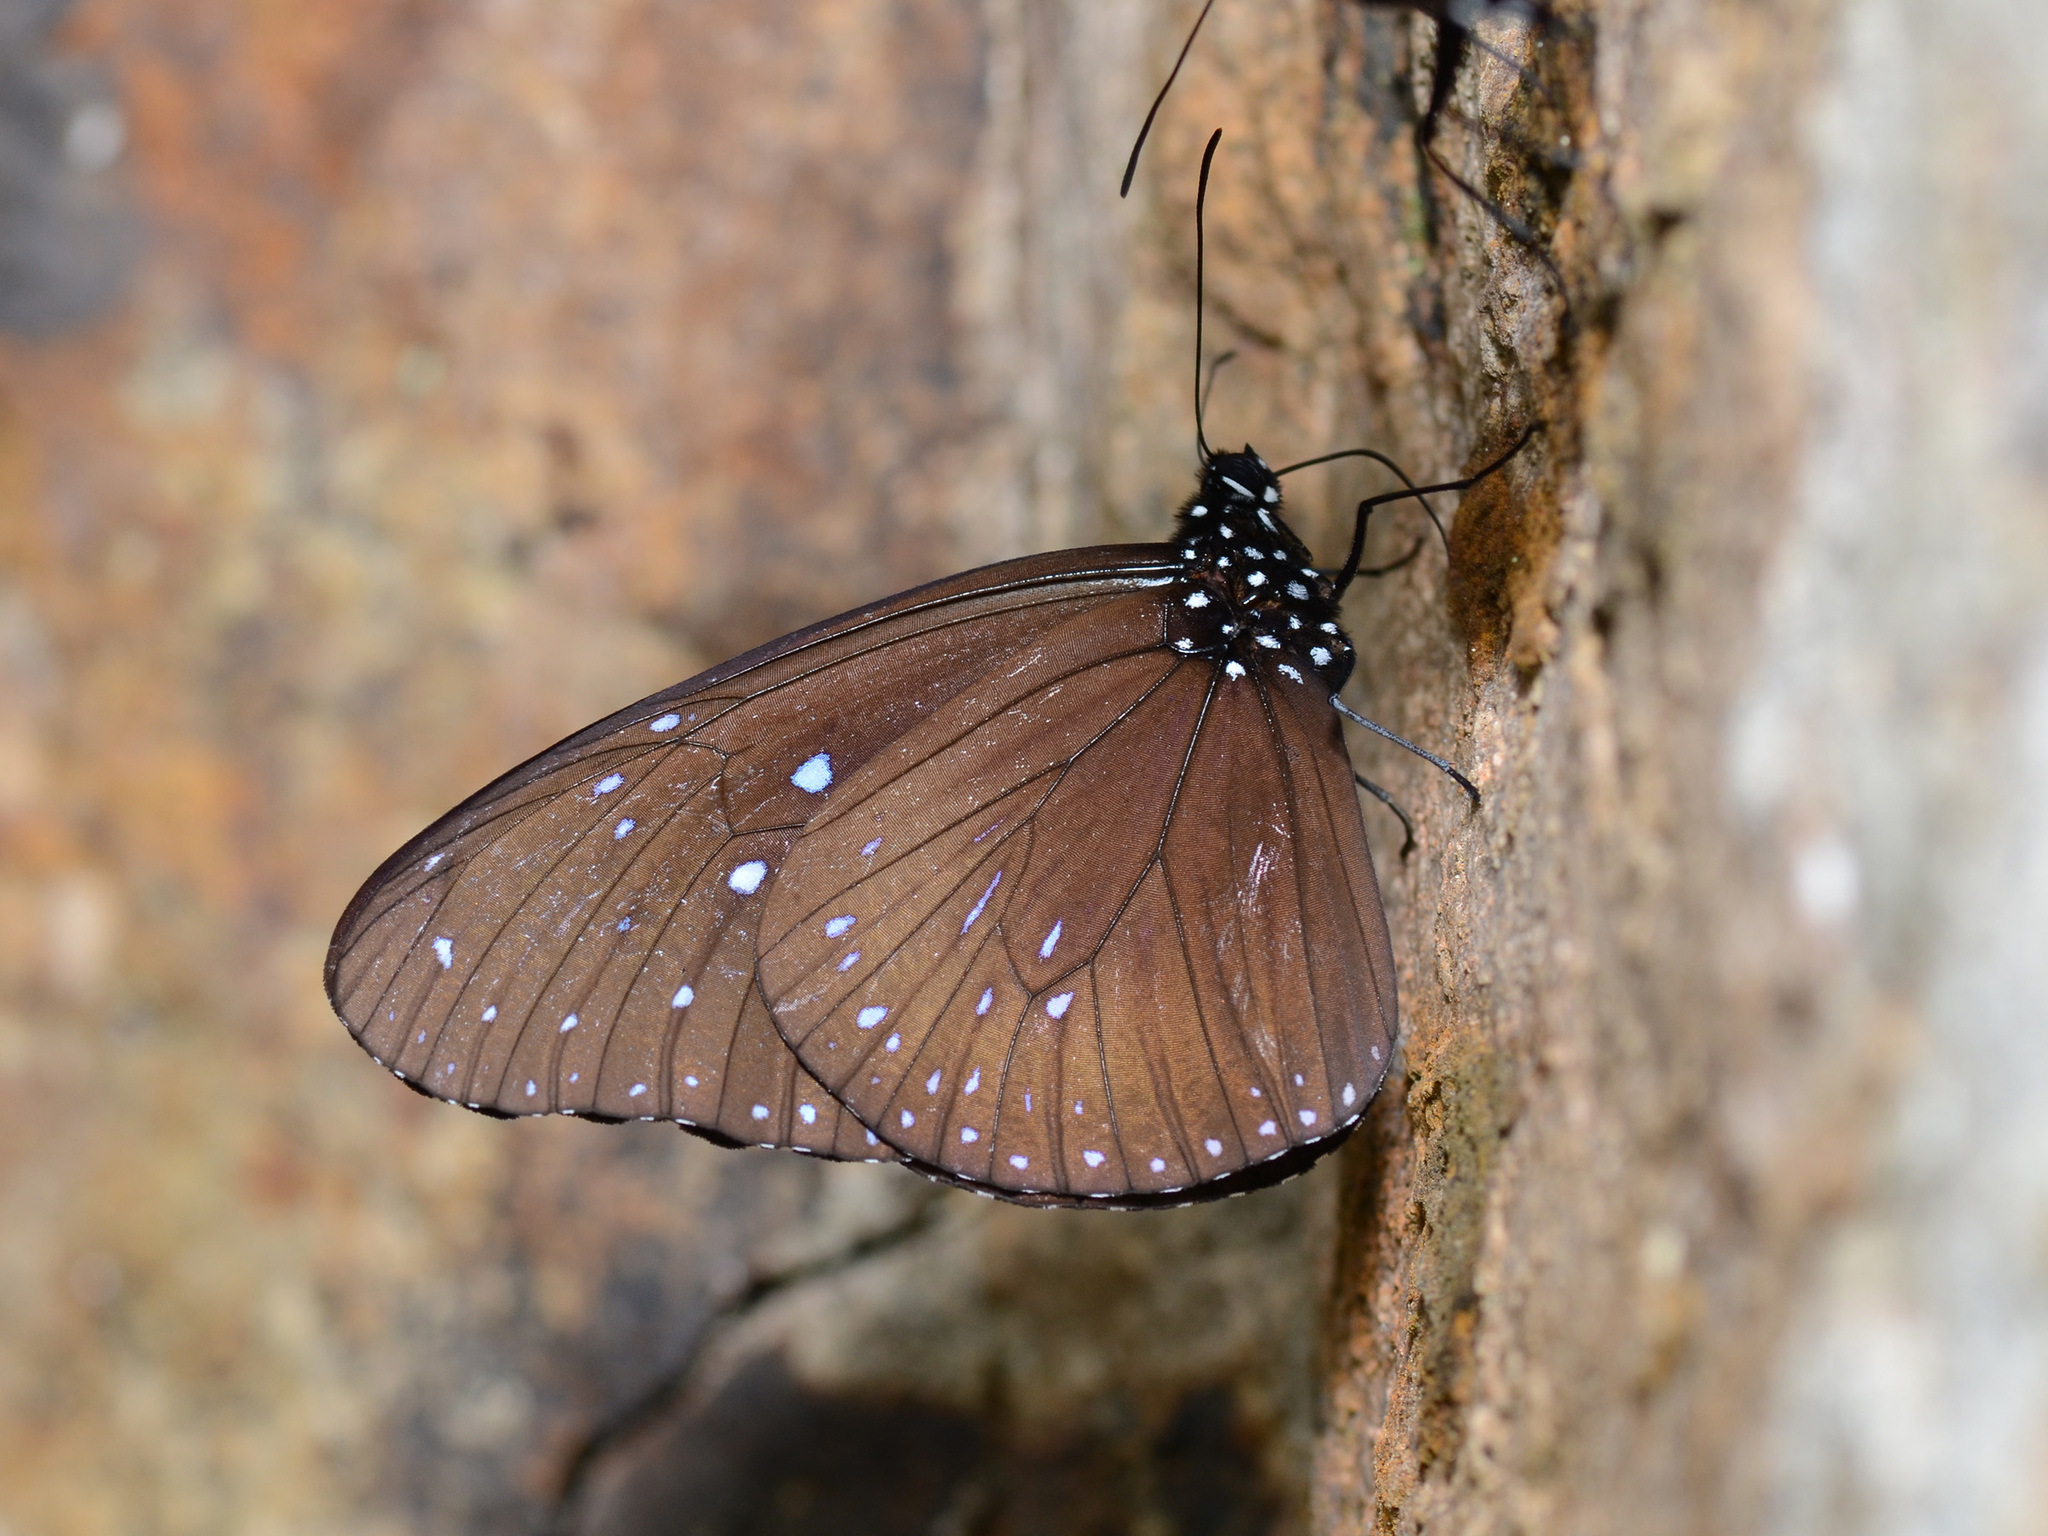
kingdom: Animalia
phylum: Arthropoda
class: Insecta
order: Lepidoptera
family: Nymphalidae
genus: Euploea
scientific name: Euploea mulciber
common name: Striped blue crow butterfly
